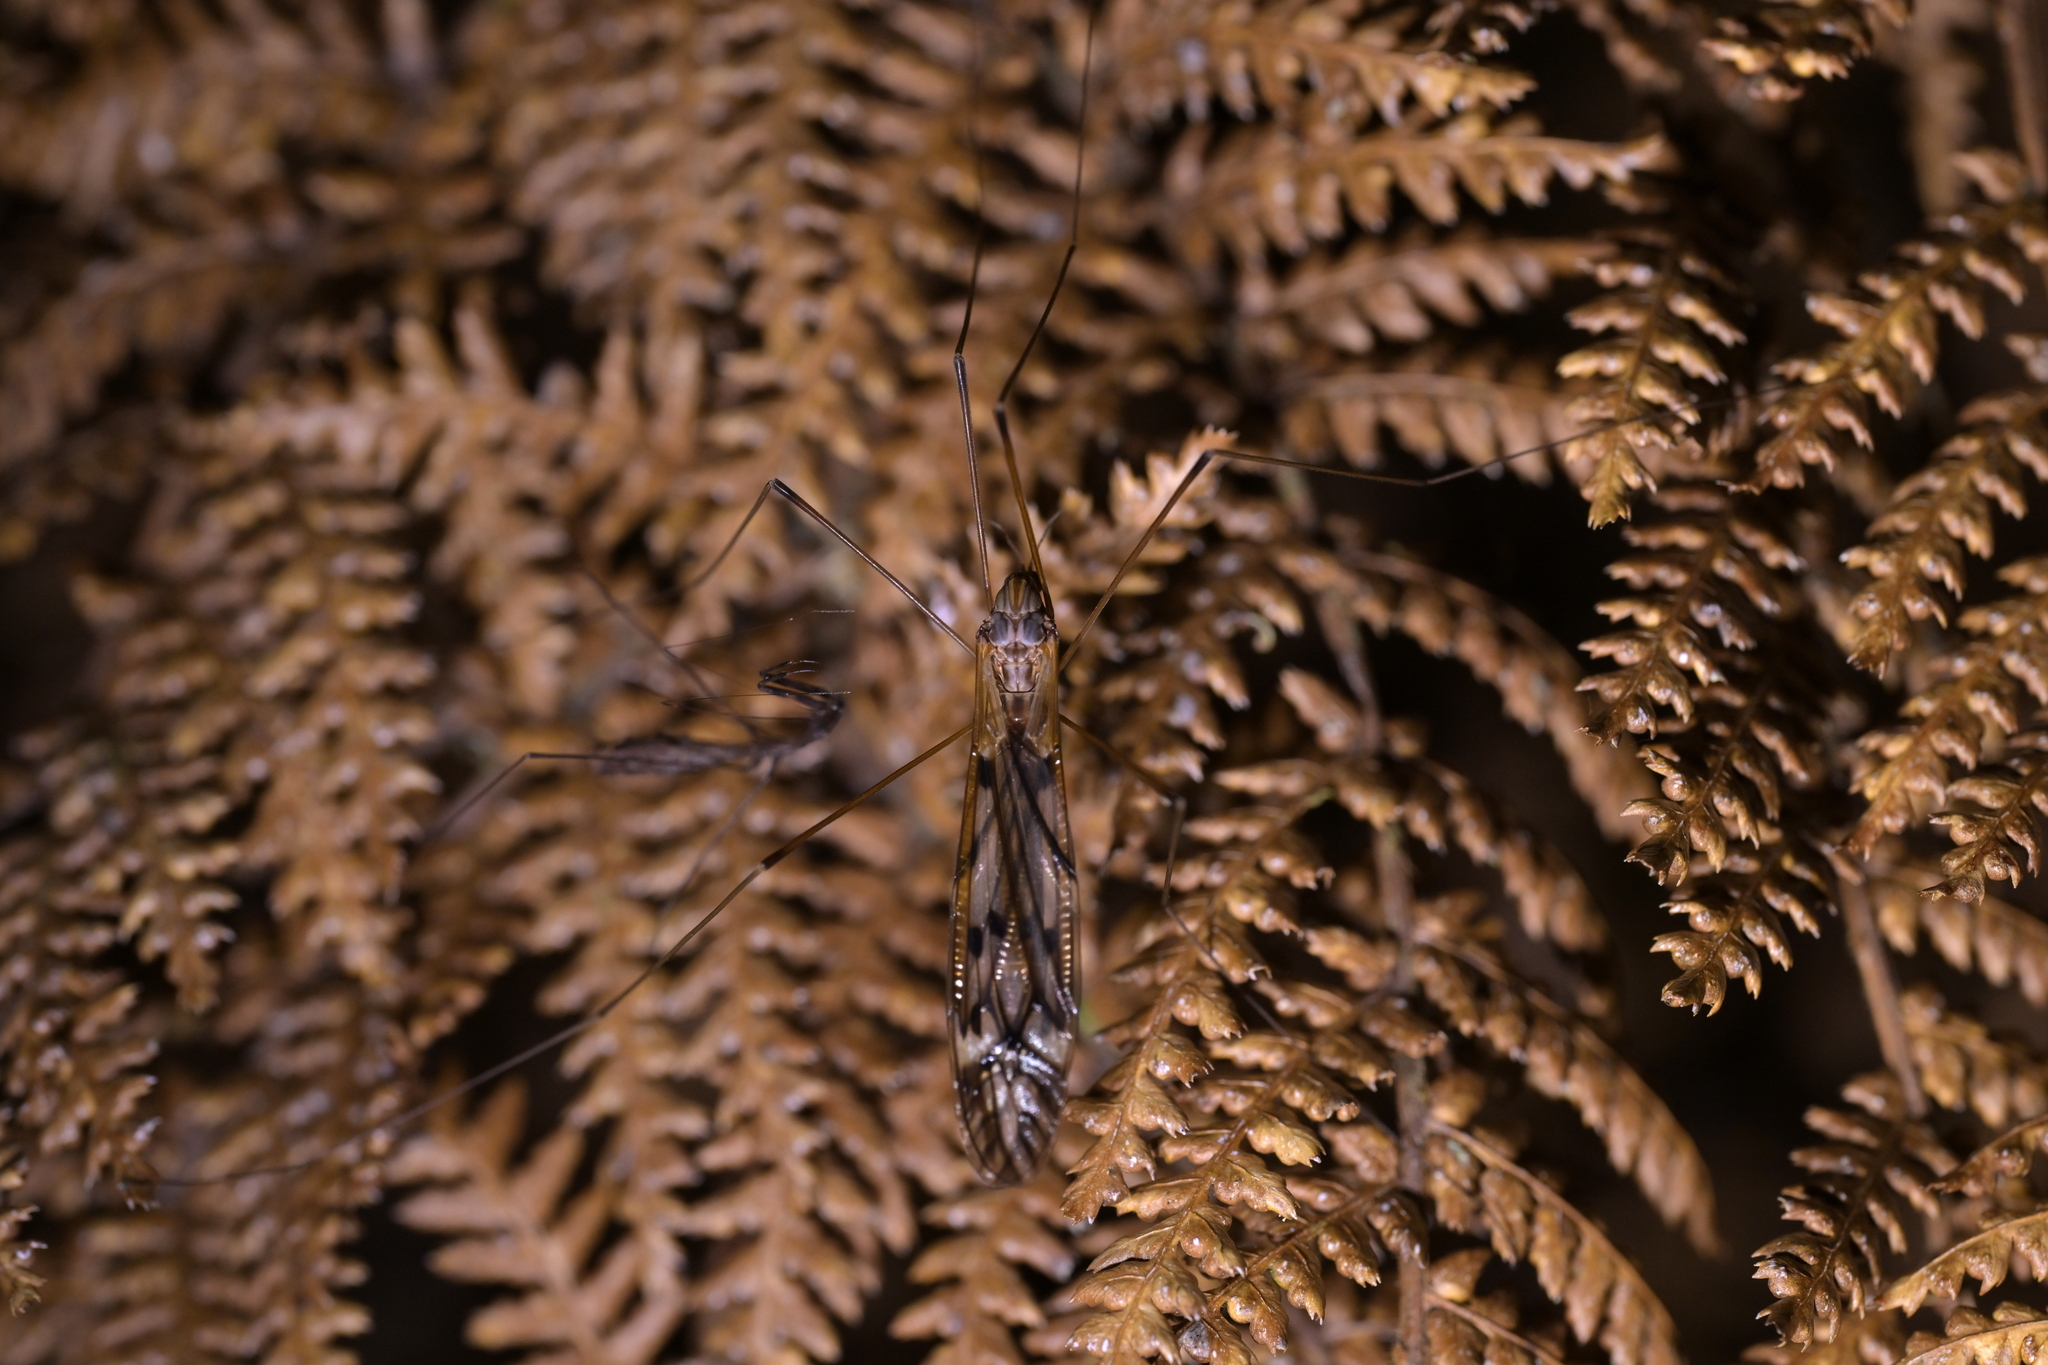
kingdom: Animalia
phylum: Arthropoda
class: Insecta
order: Diptera
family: Tipulidae
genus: Zelandotipula
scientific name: Zelandotipula novarae
